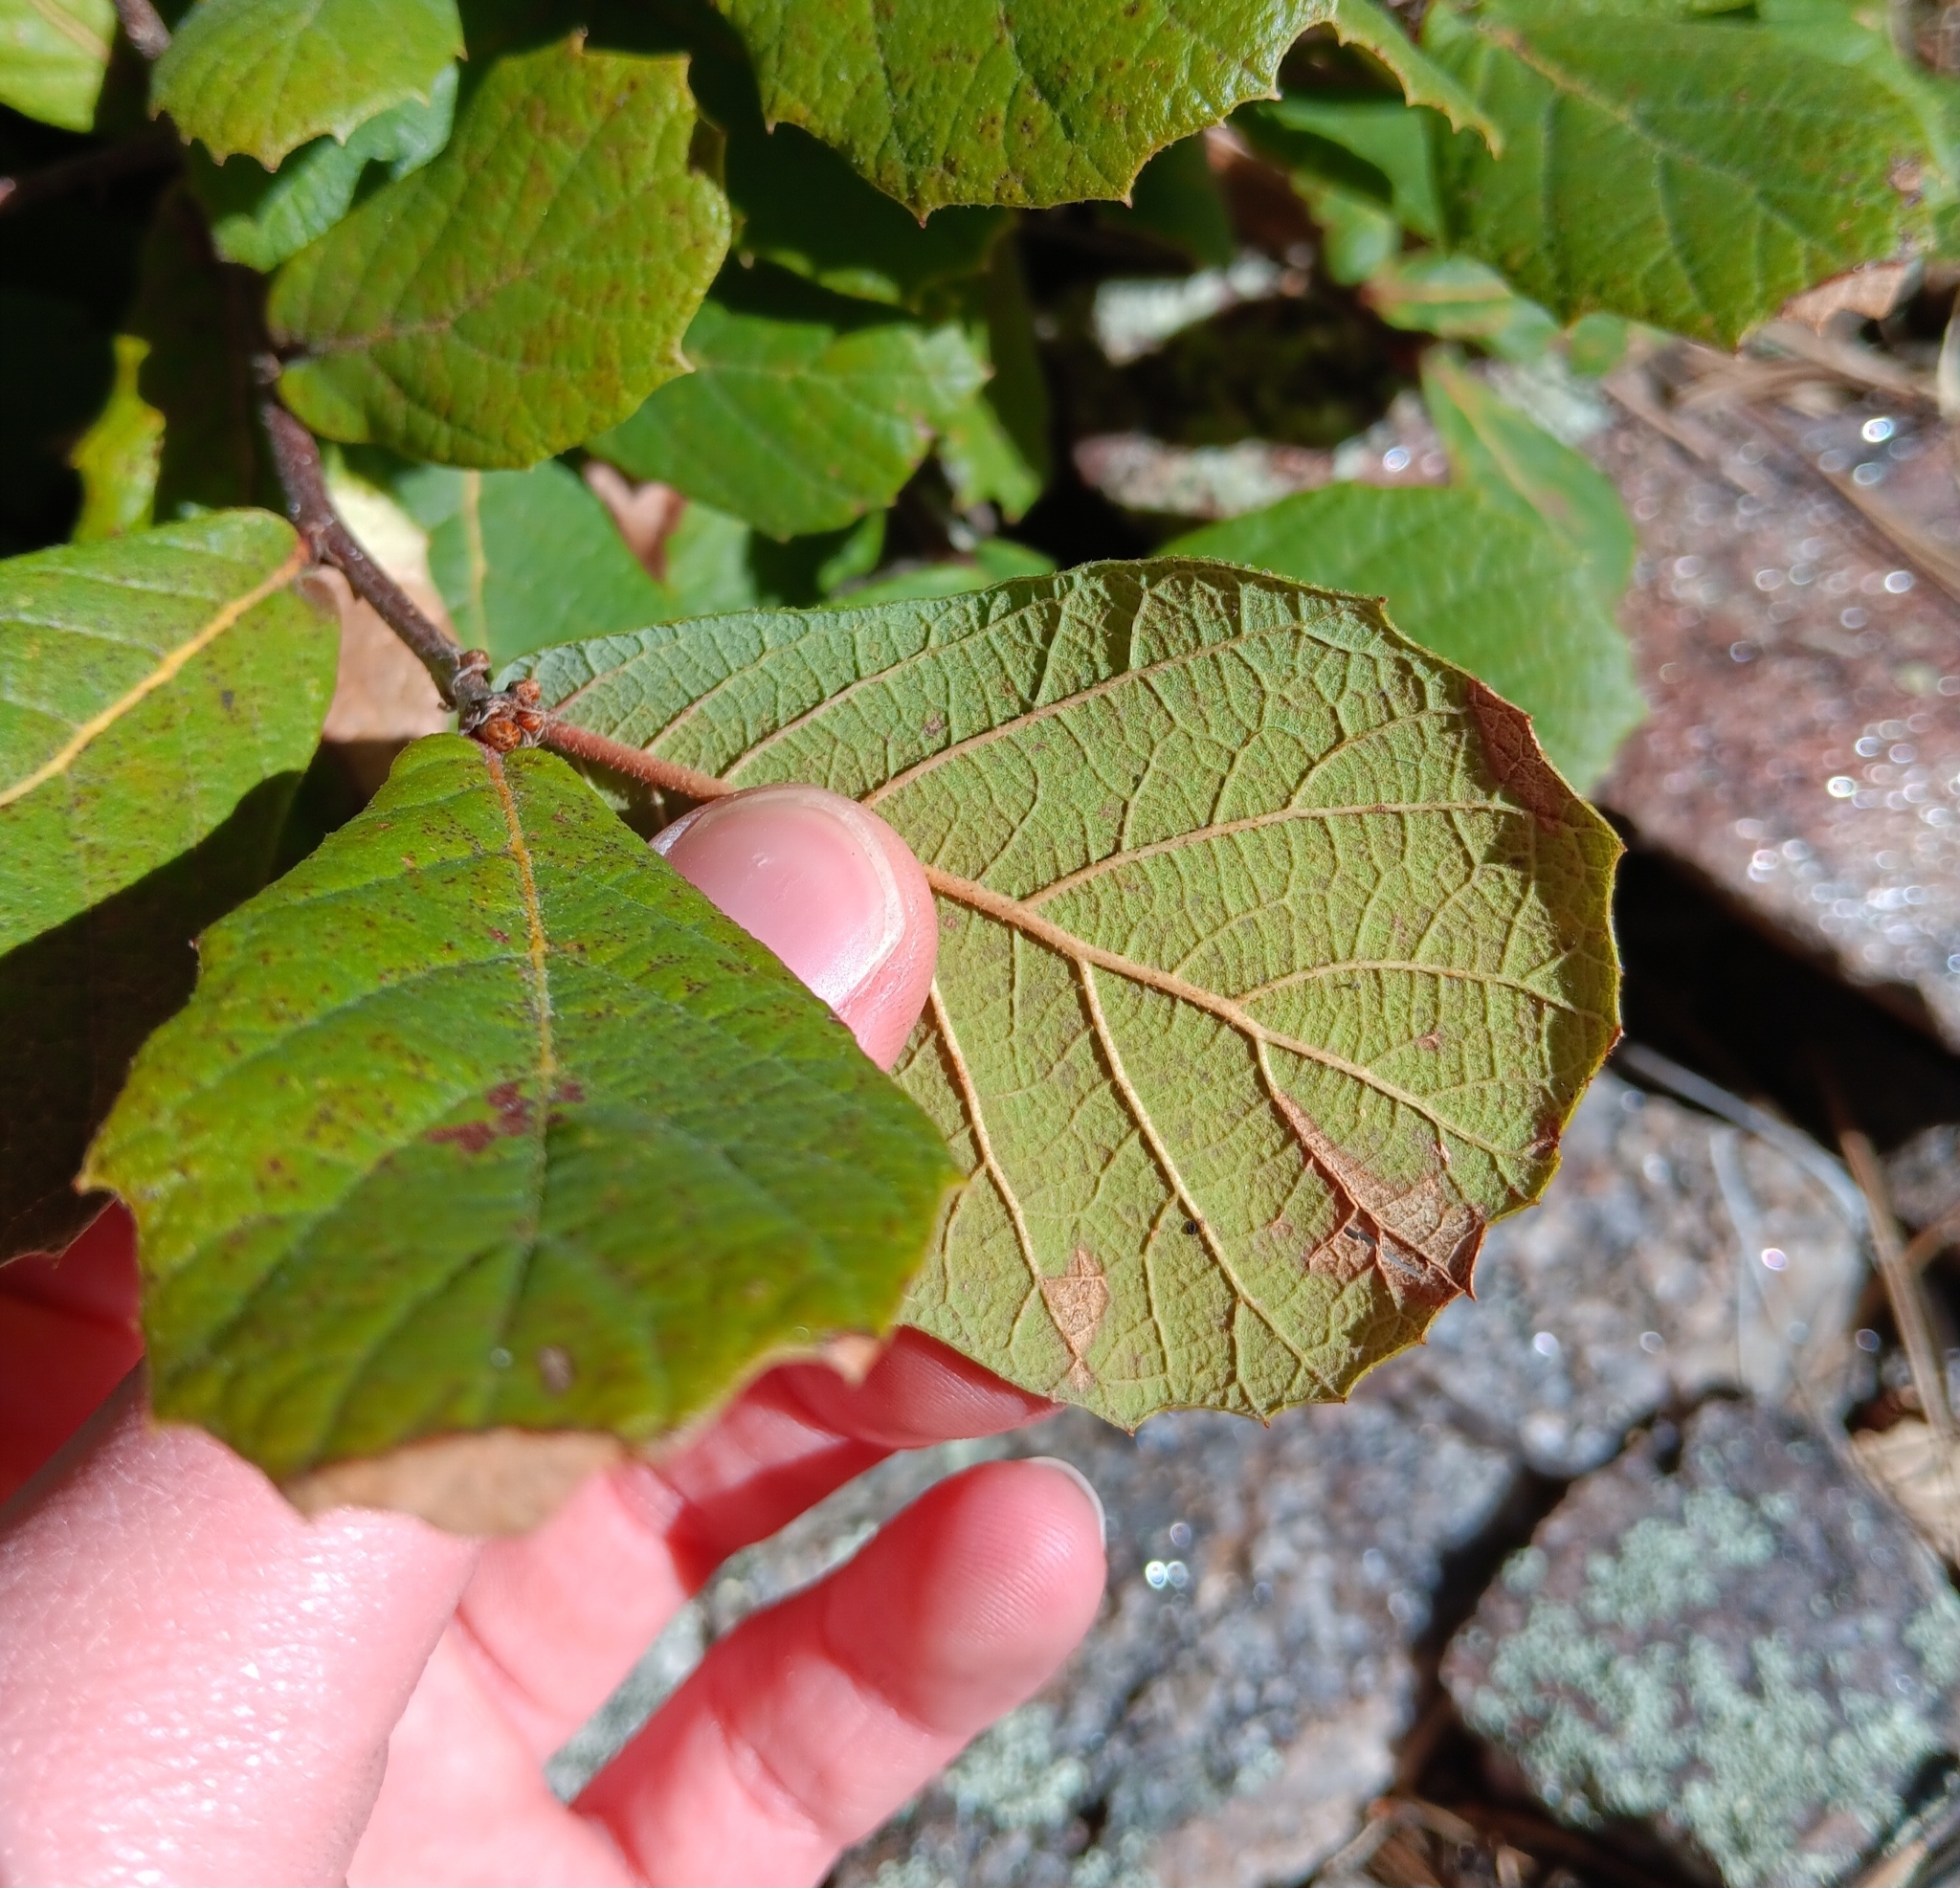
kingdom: Plantae
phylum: Tracheophyta
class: Magnoliopsida
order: Fagales
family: Fagaceae
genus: Quercus
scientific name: Quercus rugosa
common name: Netleaf oak
